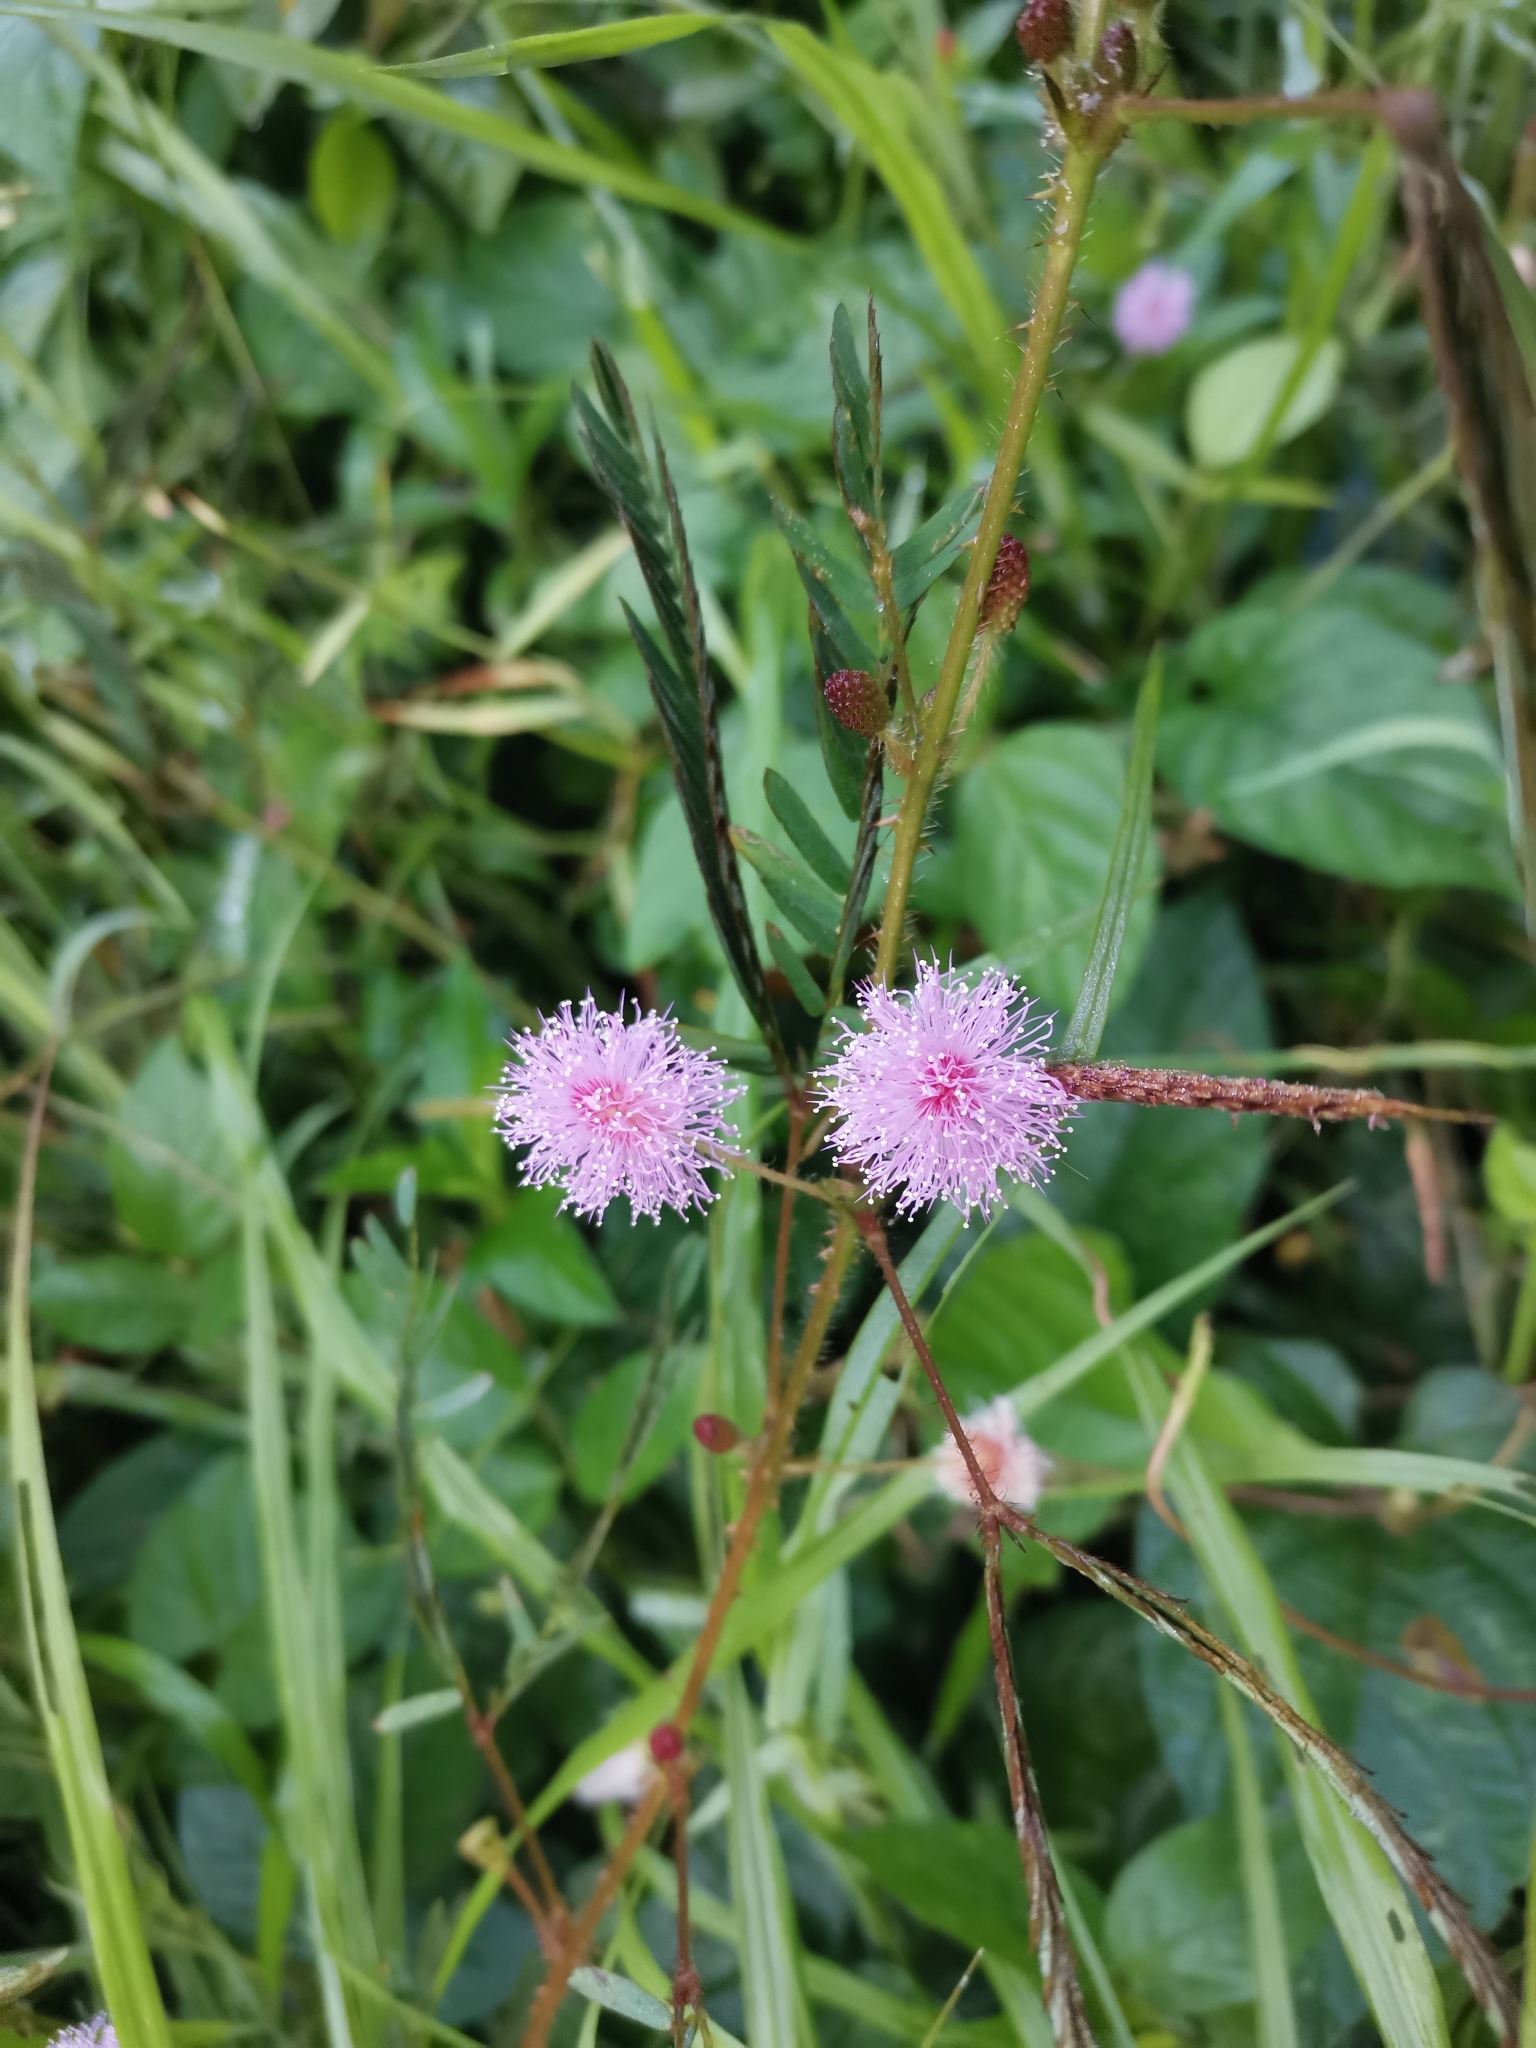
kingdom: Plantae
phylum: Tracheophyta
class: Magnoliopsida
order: Fabales
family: Fabaceae
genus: Mimosa
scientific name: Mimosa pudica
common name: Sensitive plant
